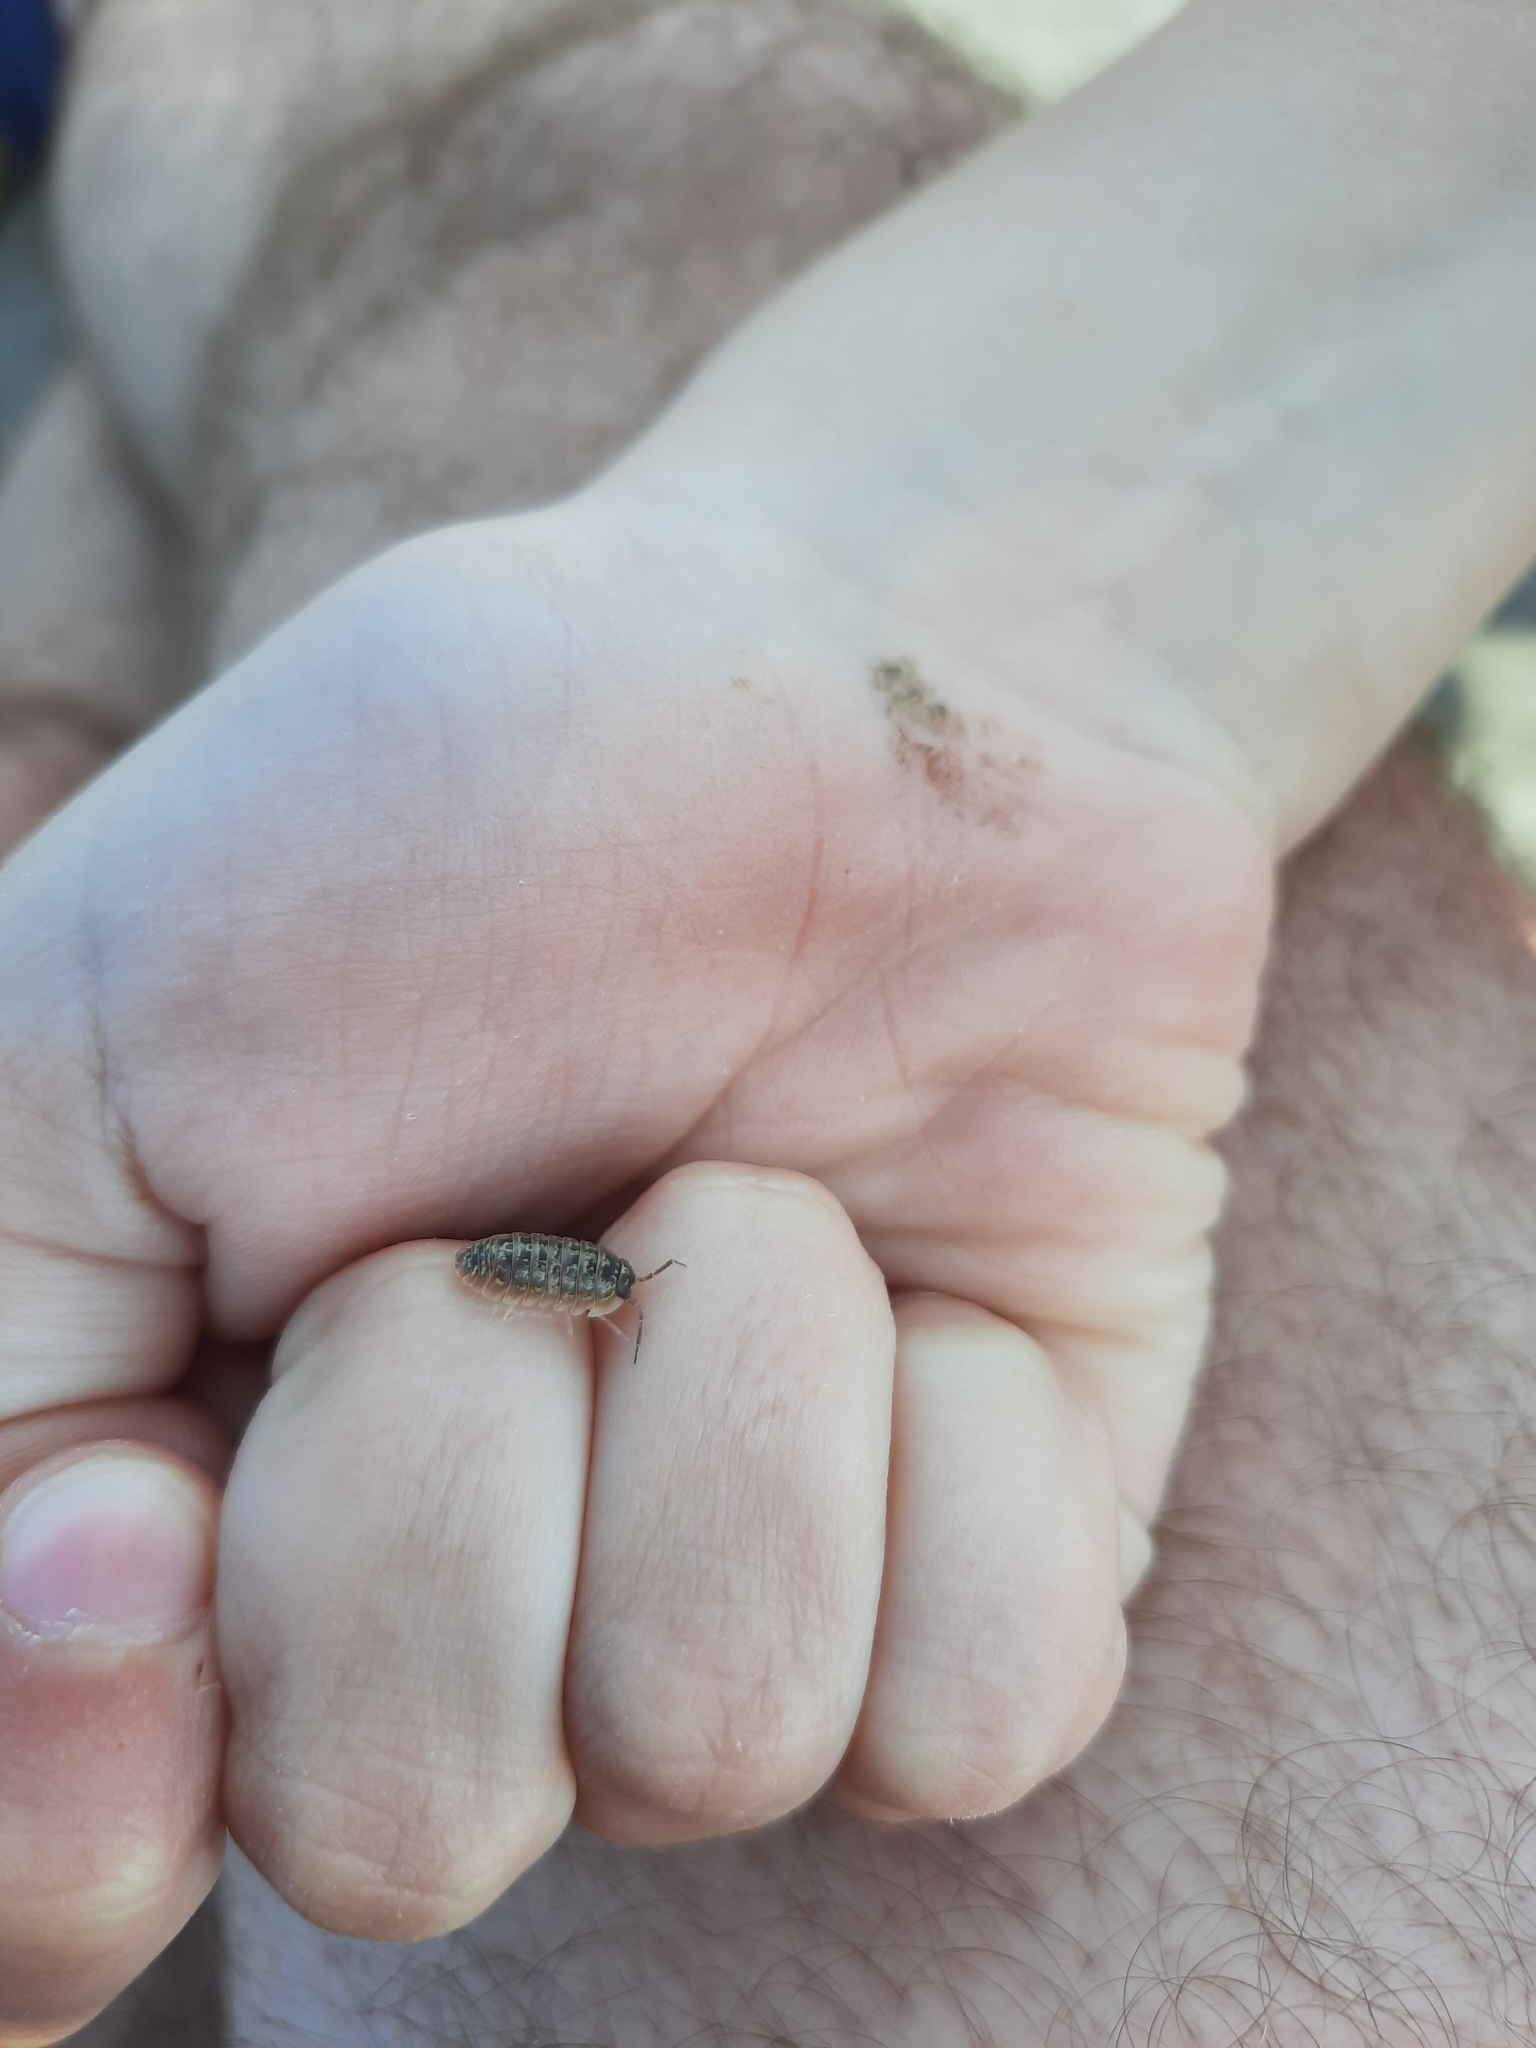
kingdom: Animalia
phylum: Arthropoda
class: Malacostraca
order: Isopoda
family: Armadillidiidae
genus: Armadillidium
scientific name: Armadillidium versicolor
